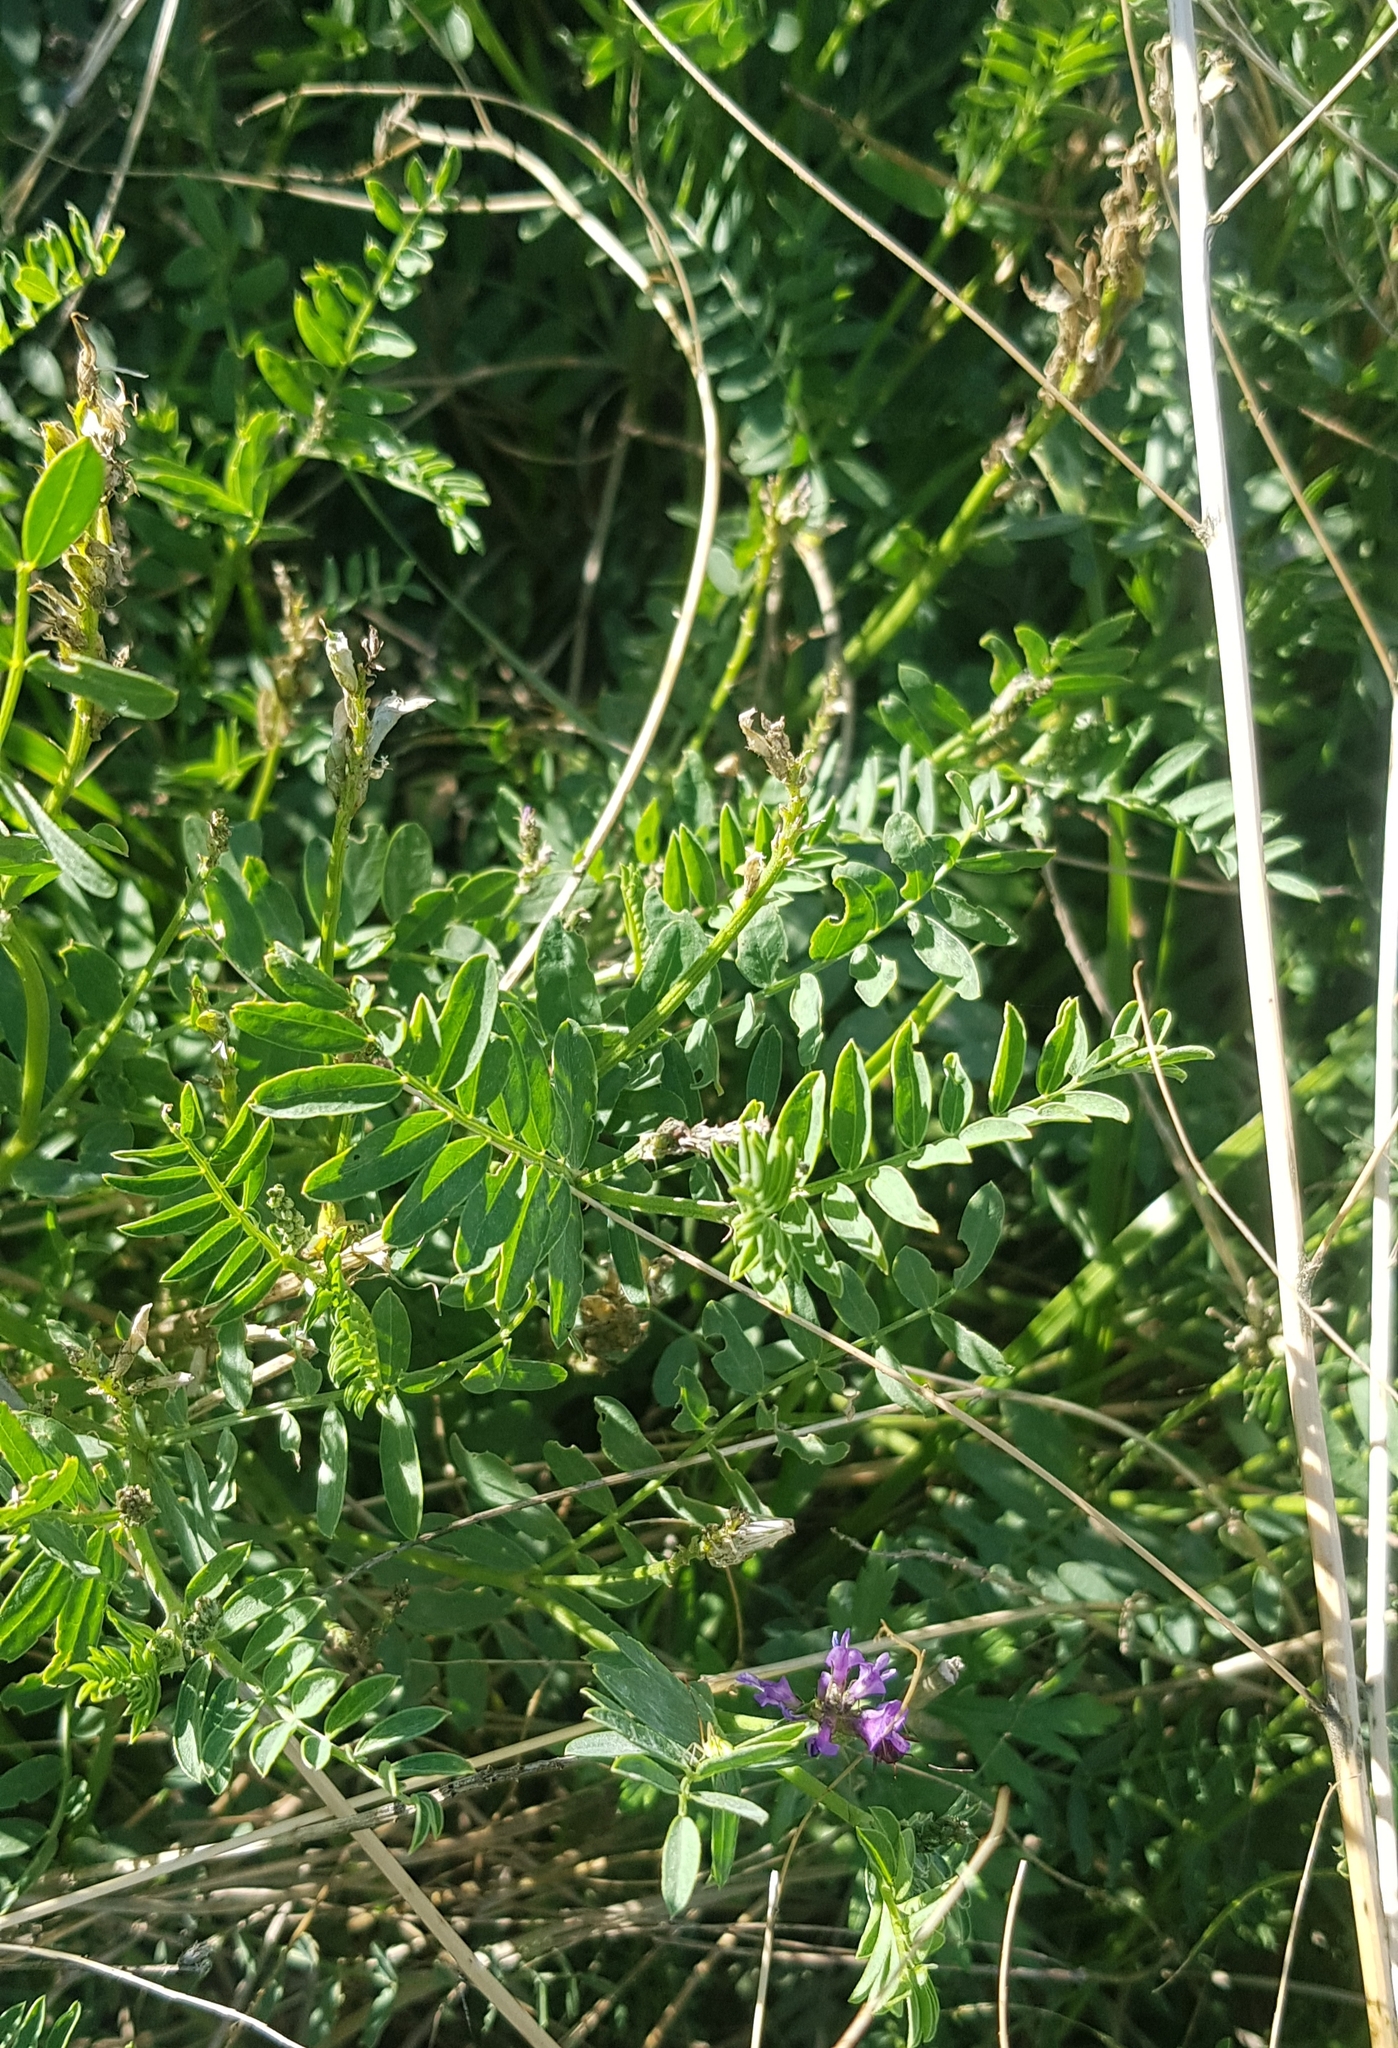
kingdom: Plantae
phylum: Tracheophyta
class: Magnoliopsida
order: Fabales
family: Fabaceae
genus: Astragalus
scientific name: Astragalus laxmannii
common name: Laxmann's milk-vetch
